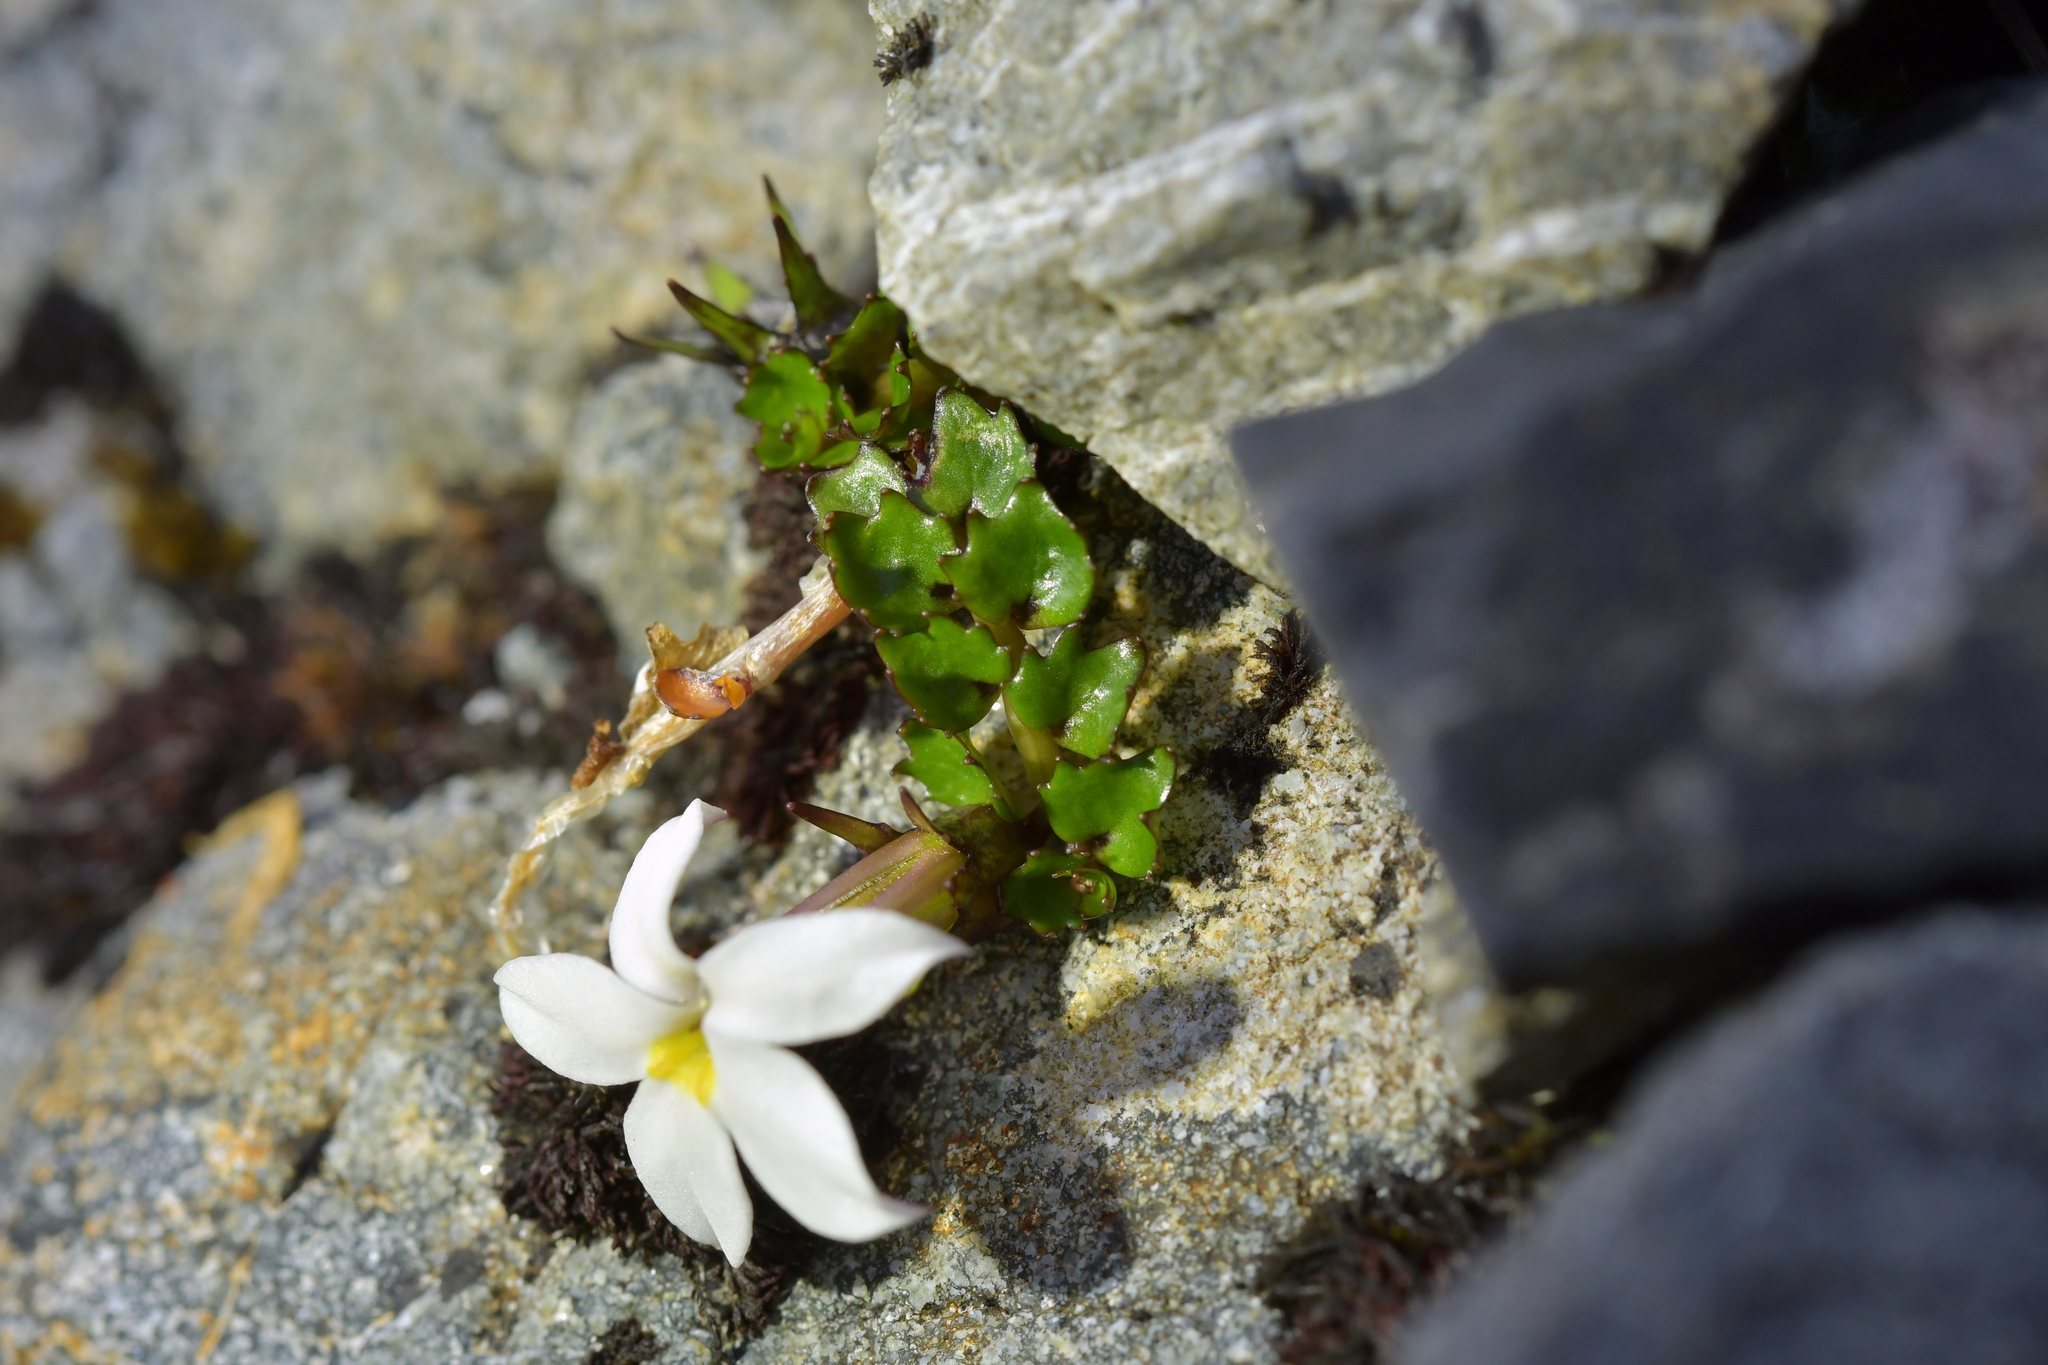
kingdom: Plantae
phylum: Tracheophyta
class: Magnoliopsida
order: Asterales
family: Campanulaceae
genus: Lobelia
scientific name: Lobelia macrodon
